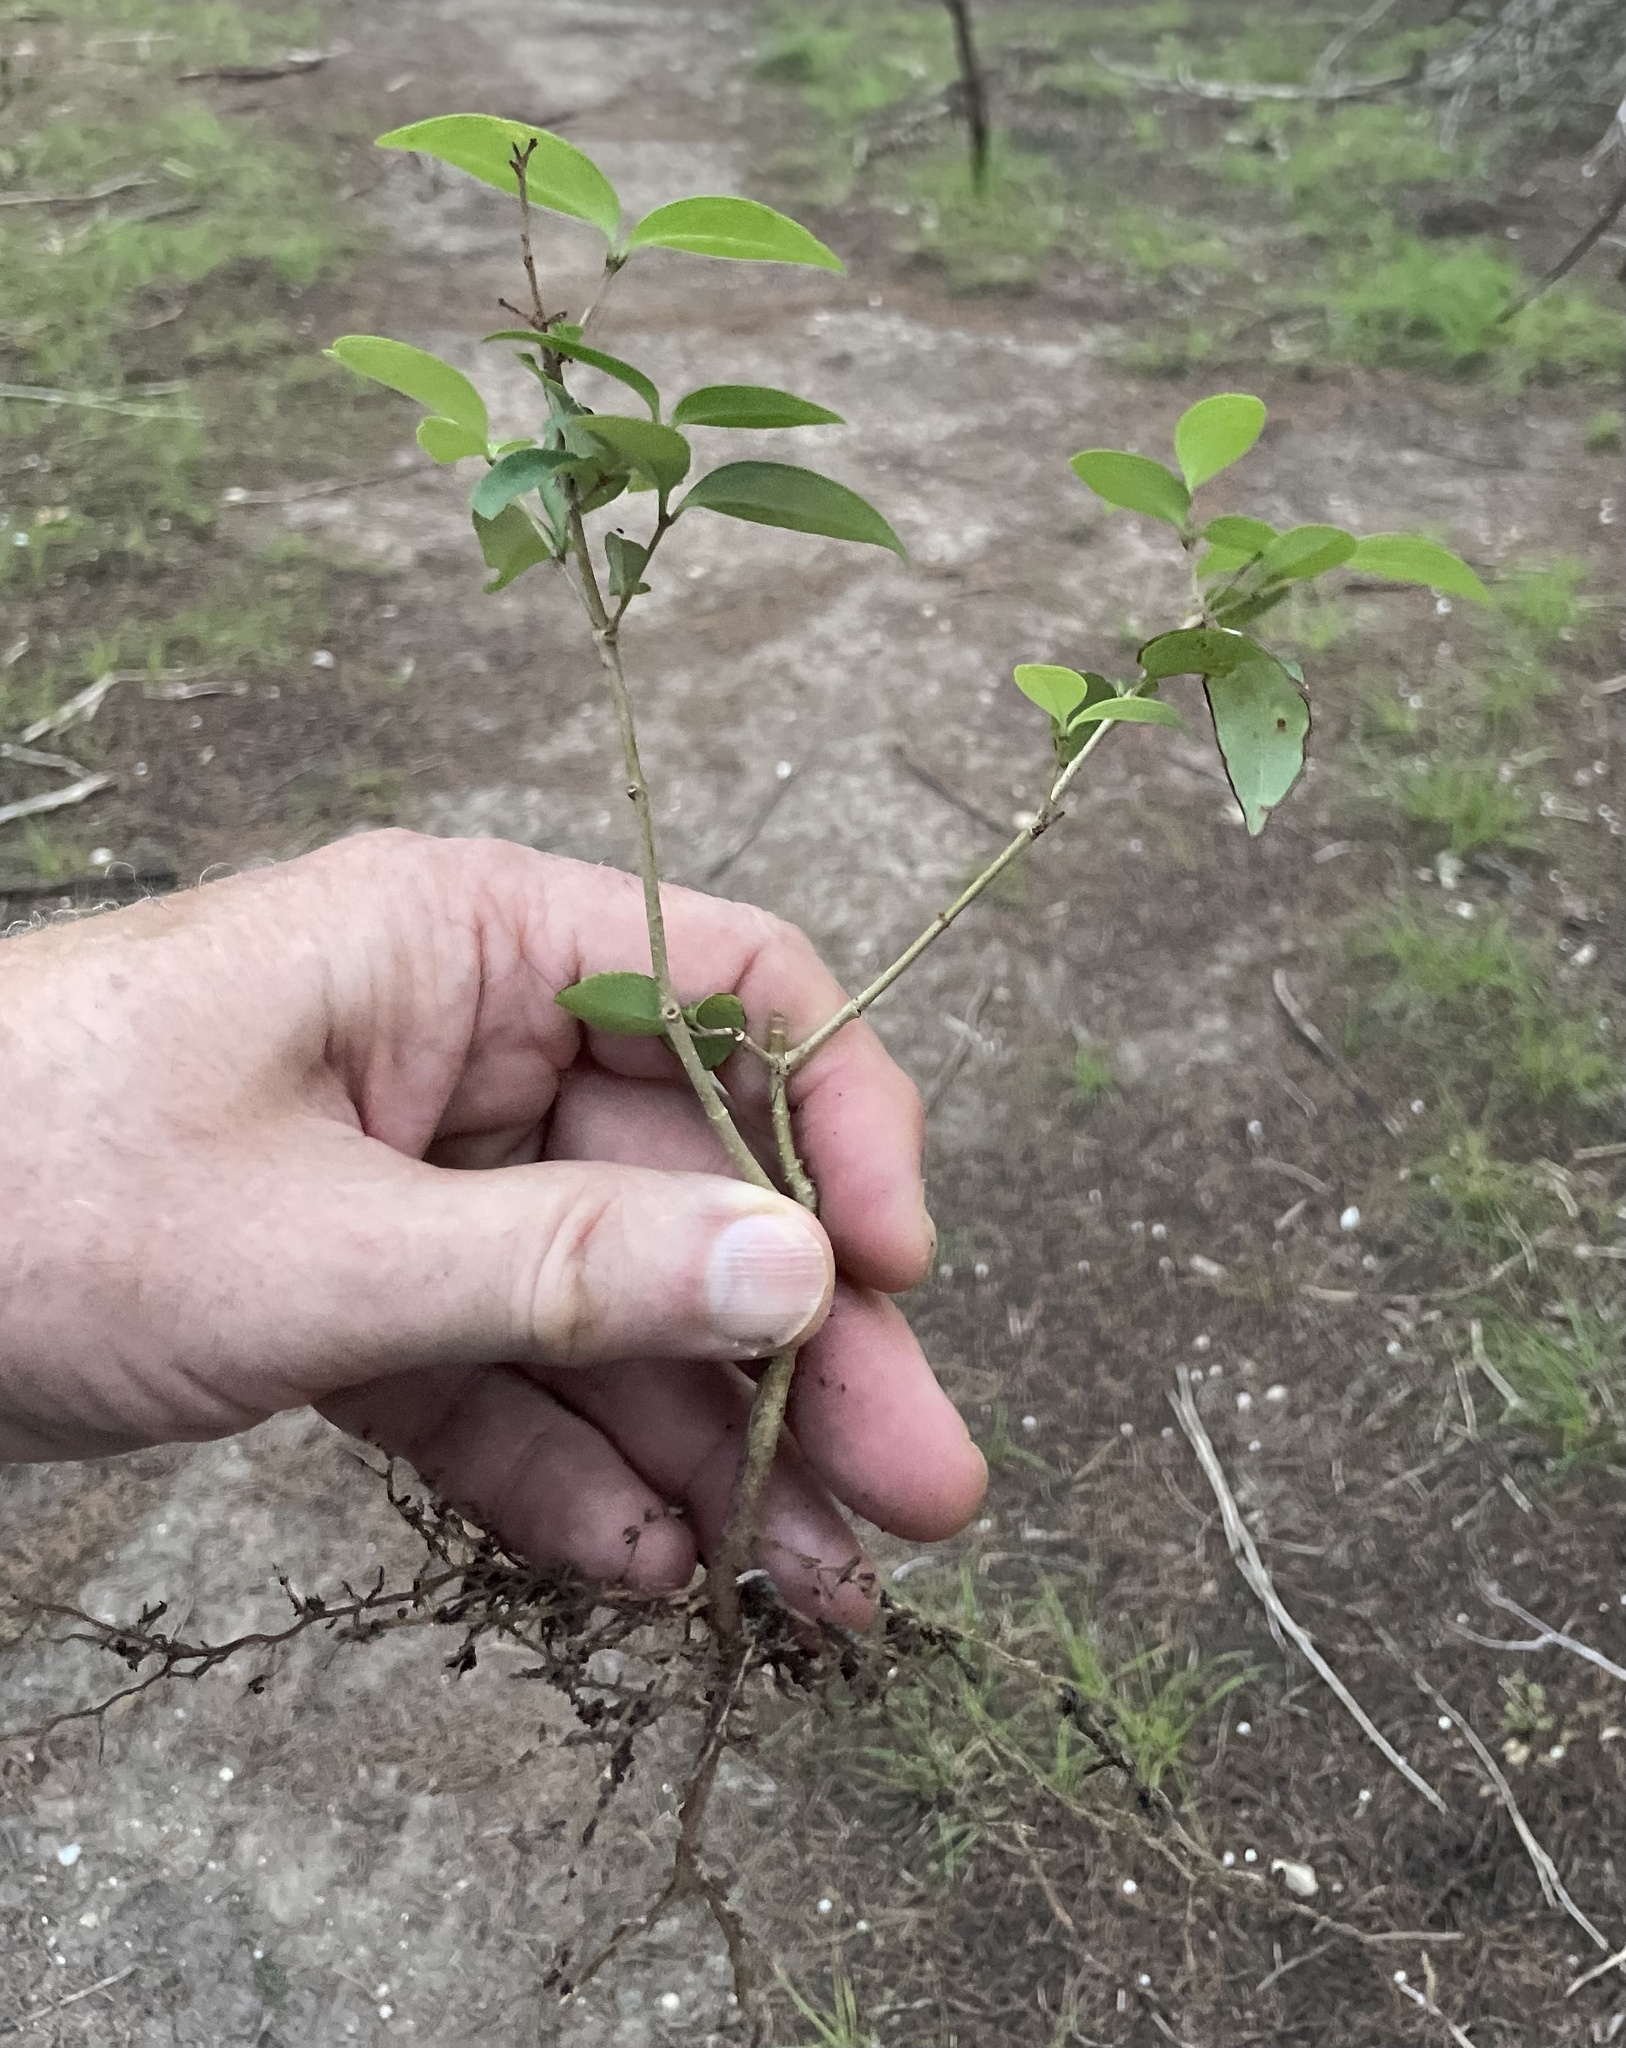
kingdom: Plantae
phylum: Tracheophyta
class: Magnoliopsida
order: Lamiales
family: Oleaceae
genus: Ligustrum
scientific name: Ligustrum lucidum
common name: Glossy privet
